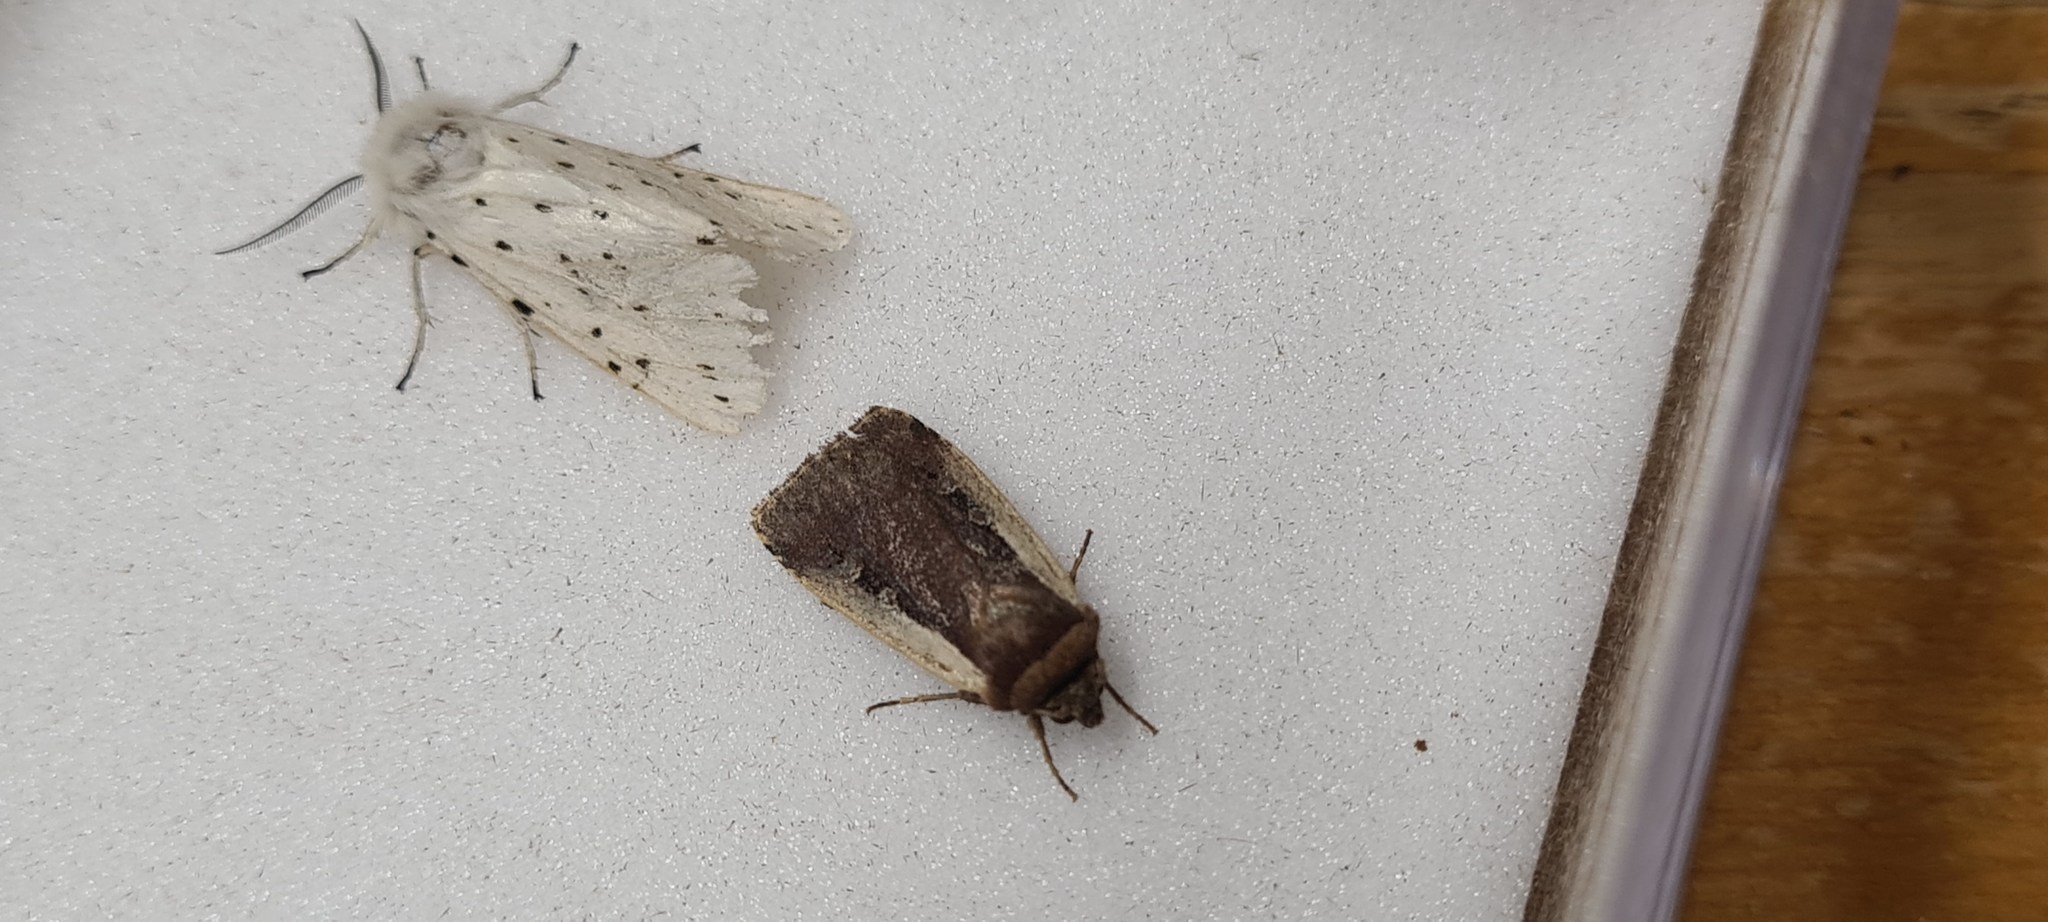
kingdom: Animalia
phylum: Arthropoda
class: Insecta
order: Lepidoptera
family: Noctuidae
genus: Ochropleura
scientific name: Ochropleura plecta
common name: Flame shoulder
